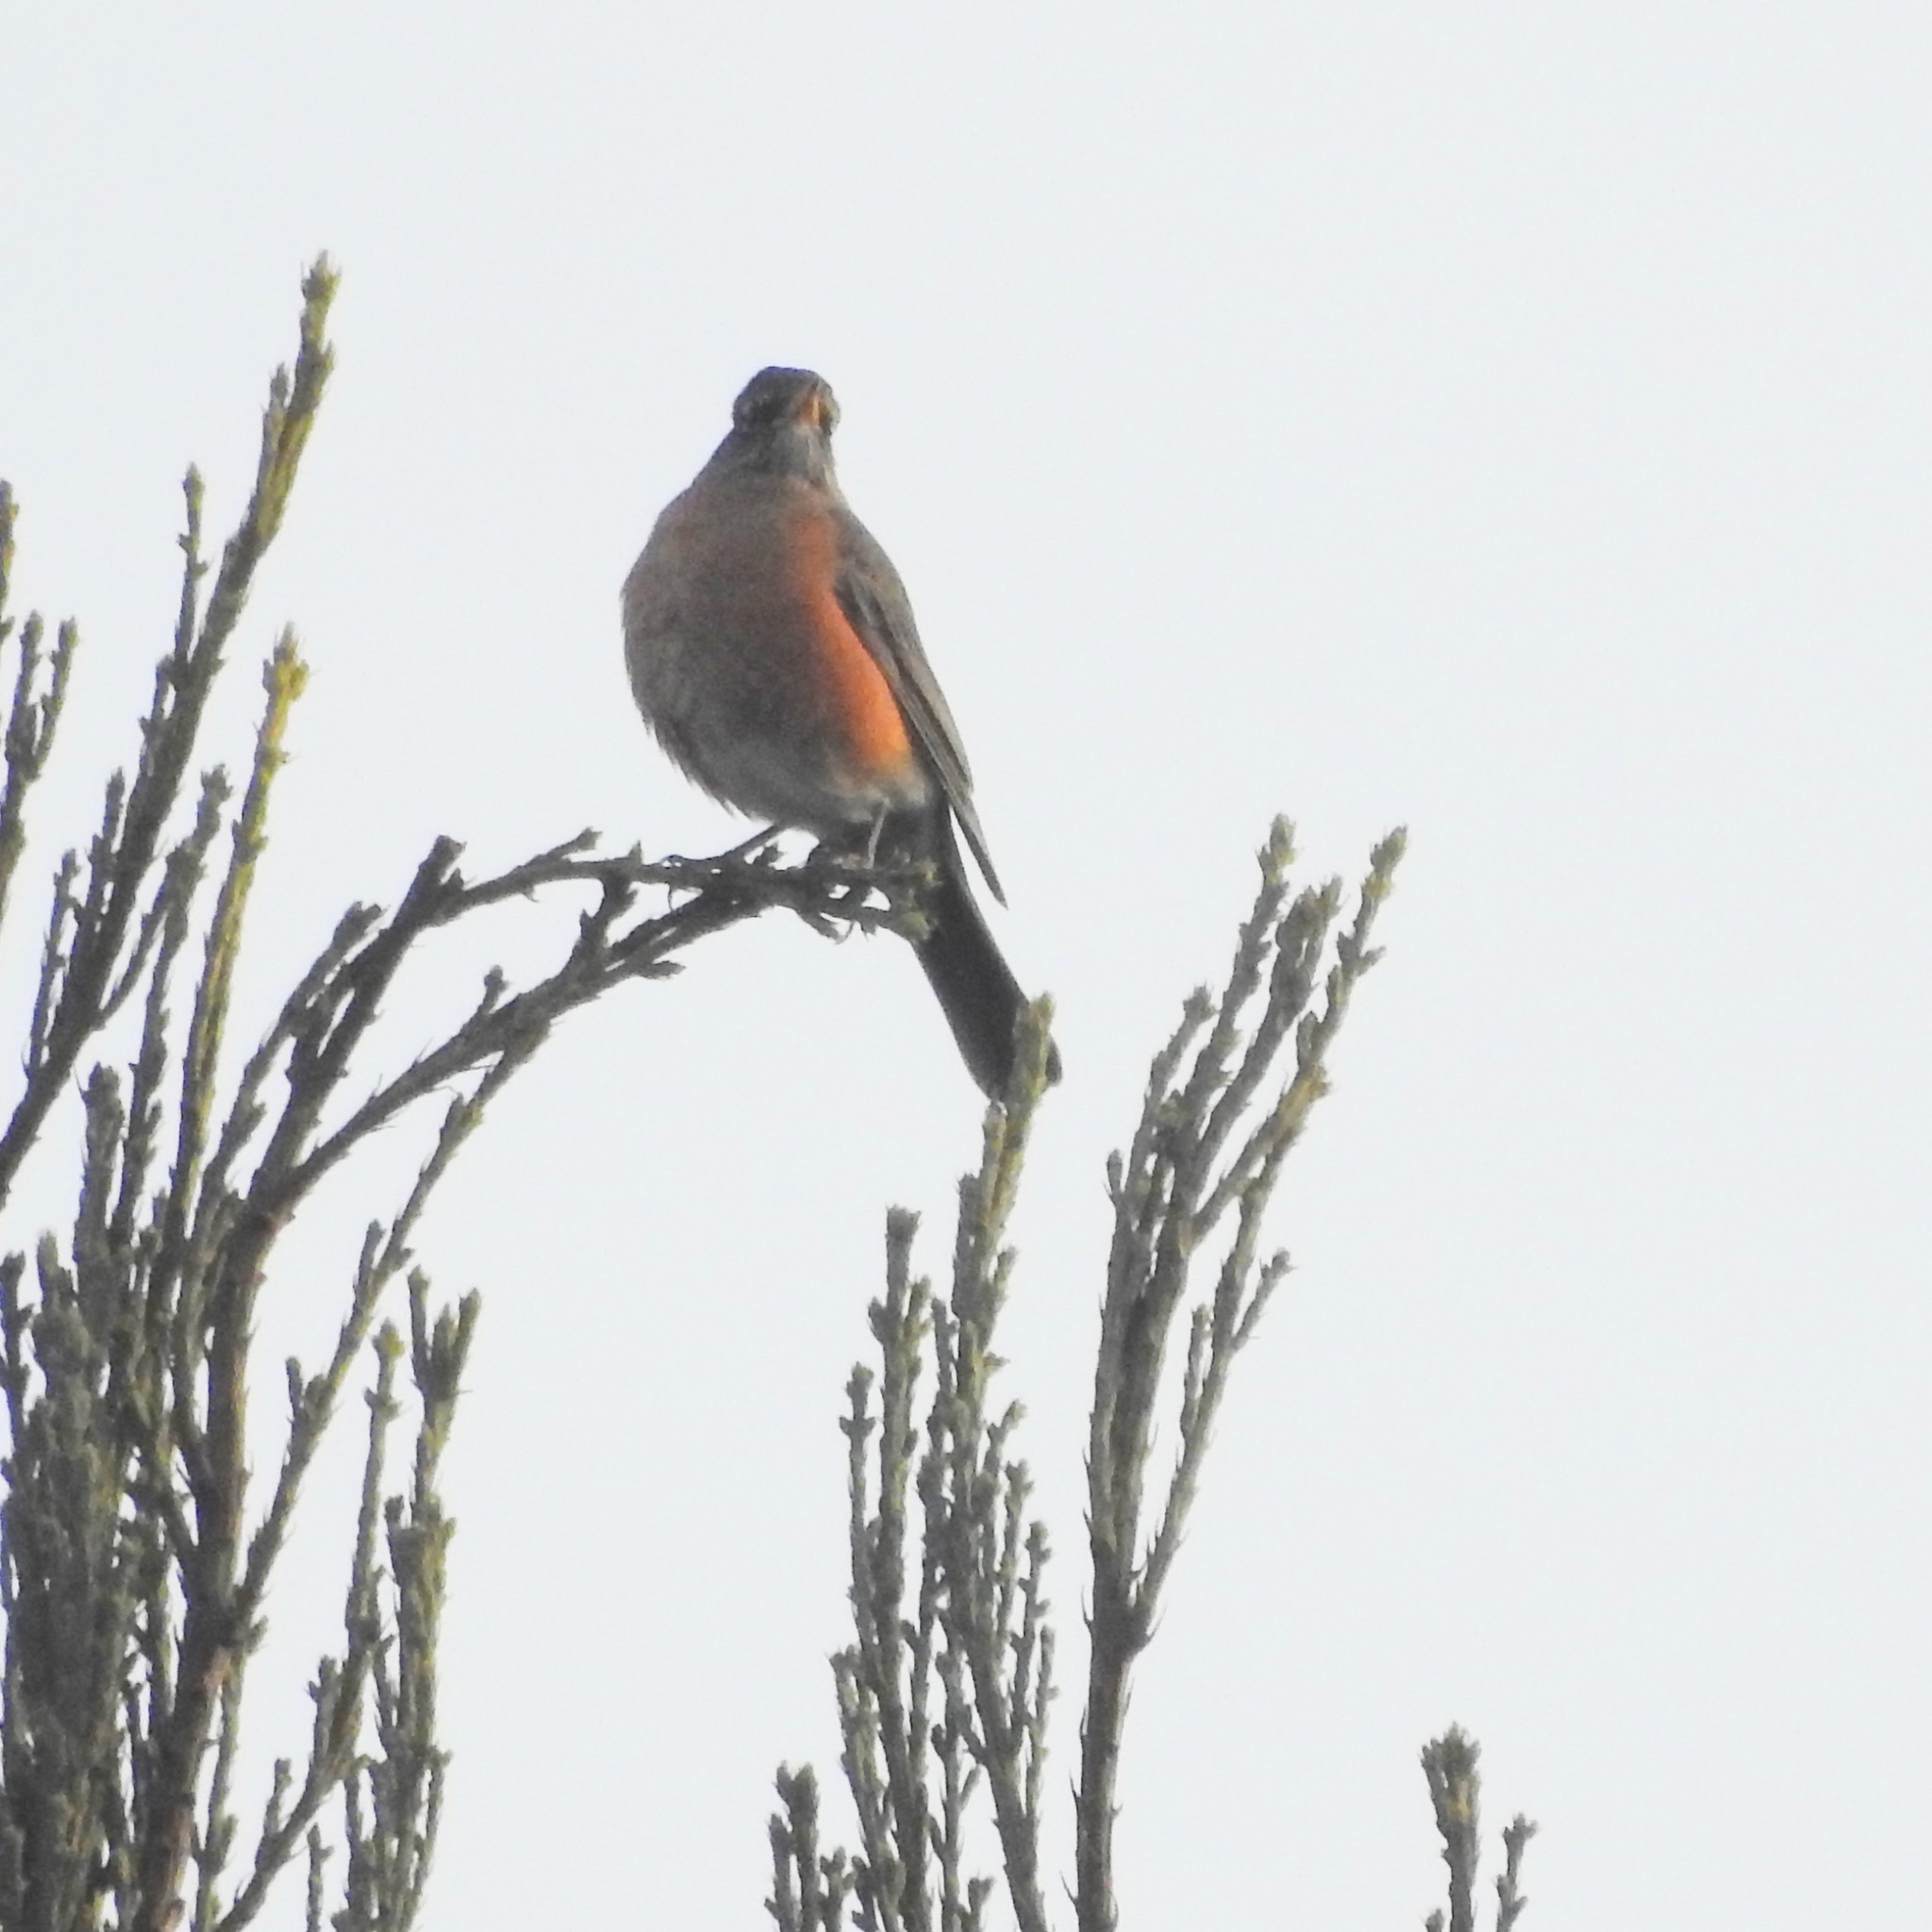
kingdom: Animalia
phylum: Chordata
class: Aves
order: Passeriformes
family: Turdidae
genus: Turdus
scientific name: Turdus migratorius
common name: American robin
